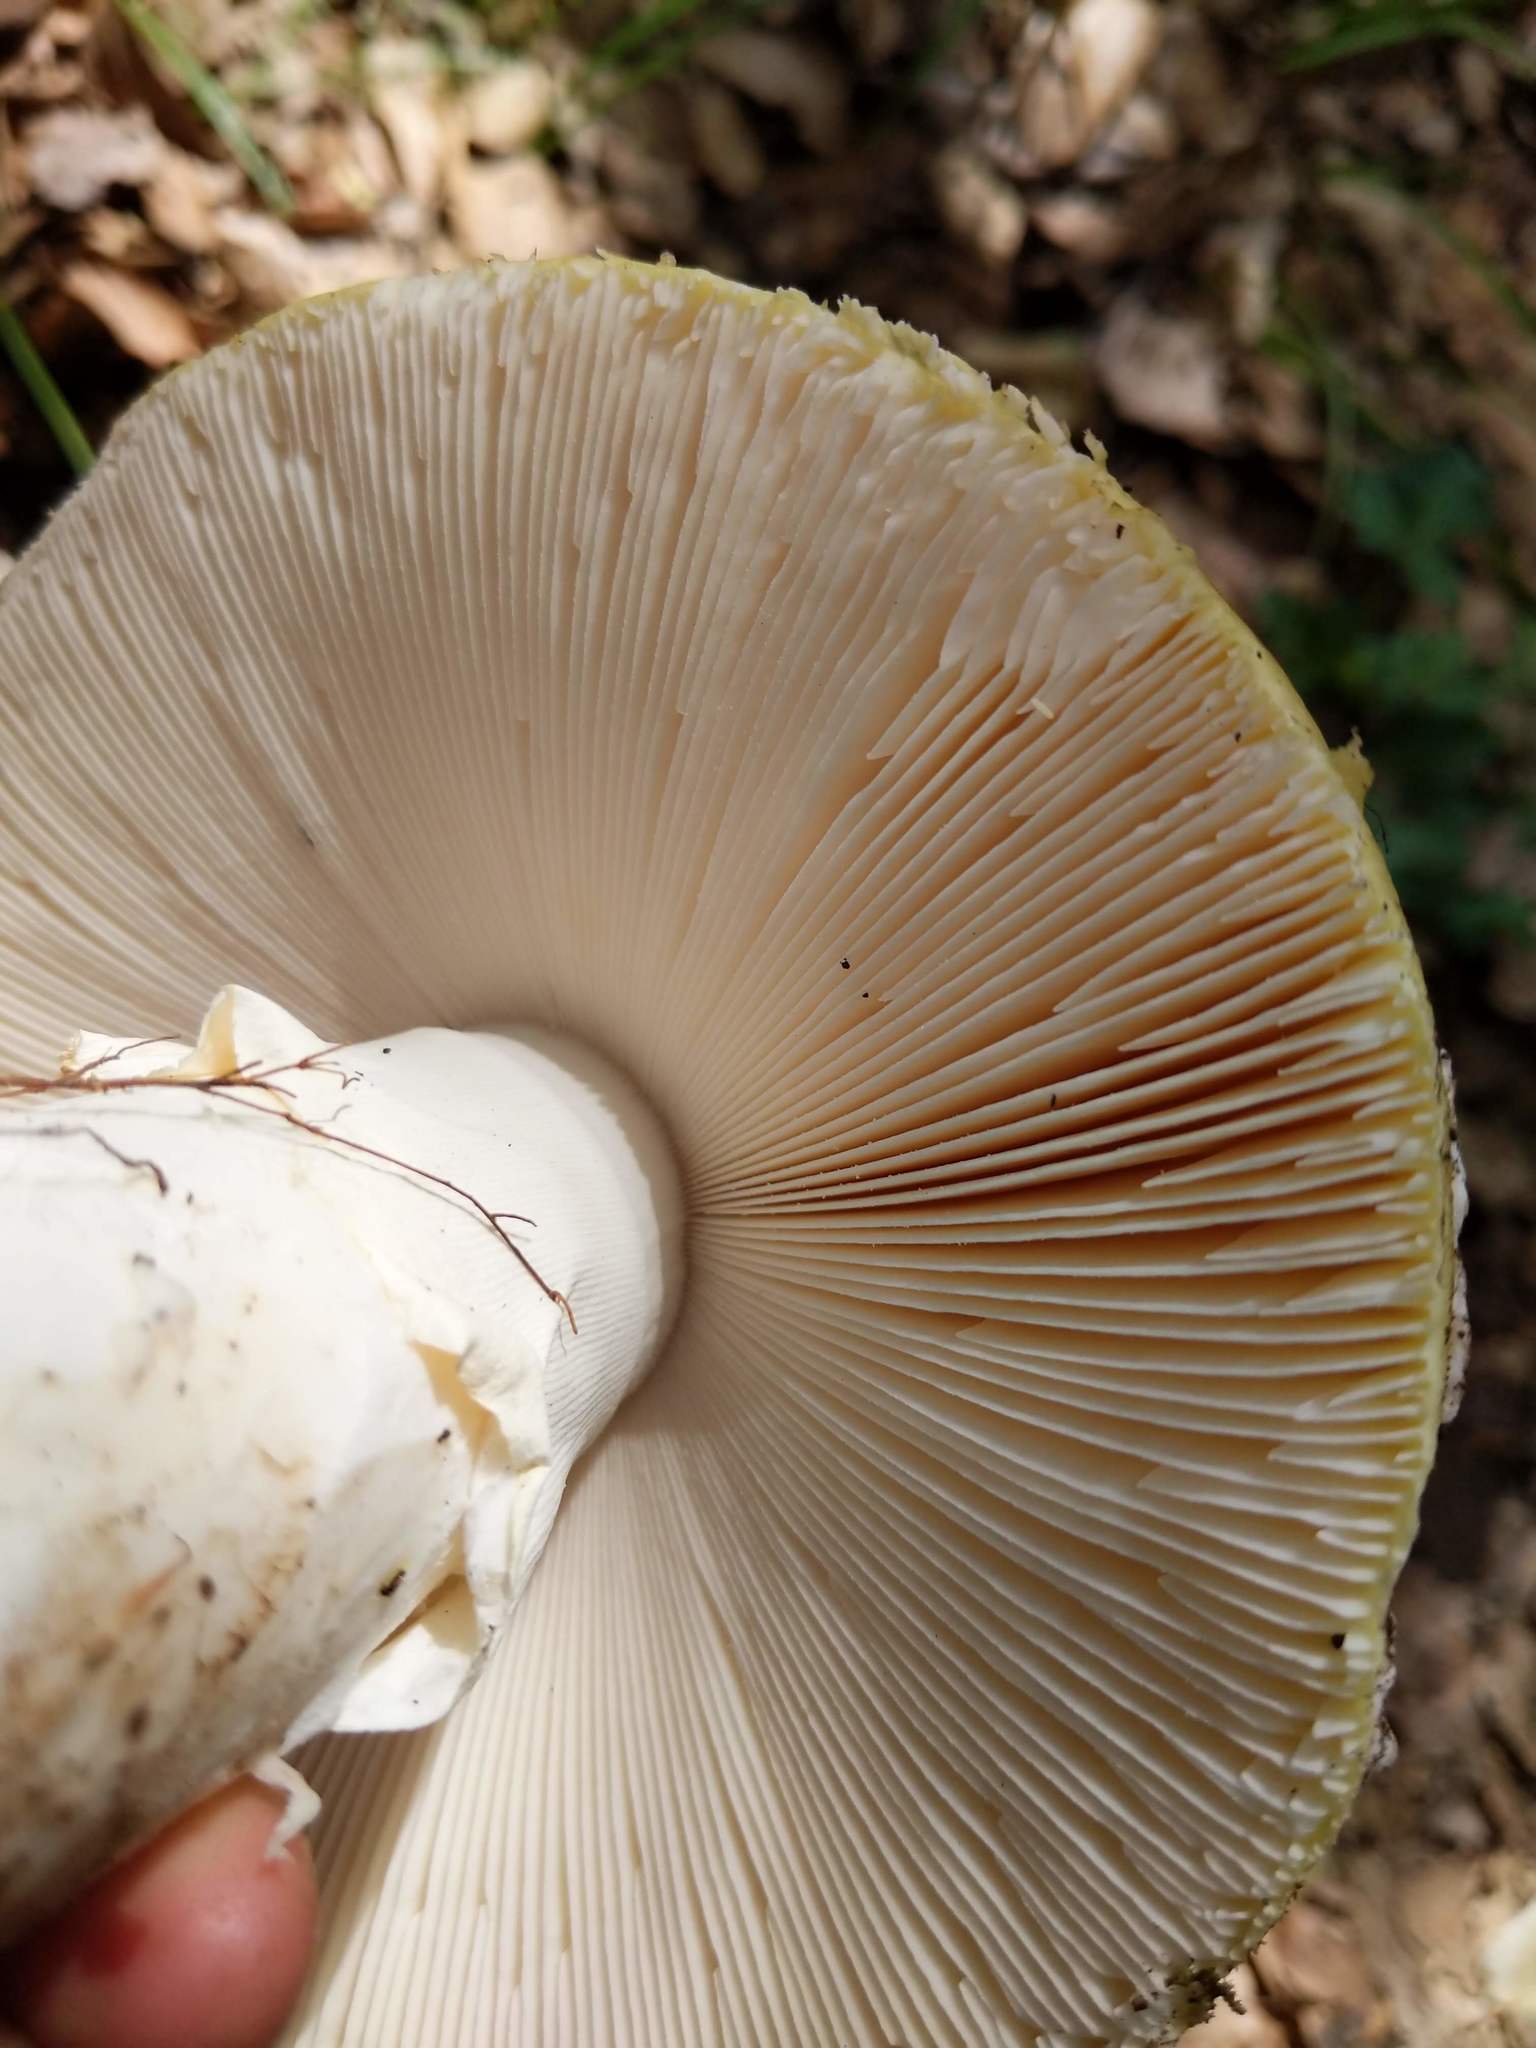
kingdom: Fungi
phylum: Basidiomycota
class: Agaricomycetes
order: Agaricales
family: Amanitaceae
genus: Amanita
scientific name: Amanita vernicoccora
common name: Spring coccora
